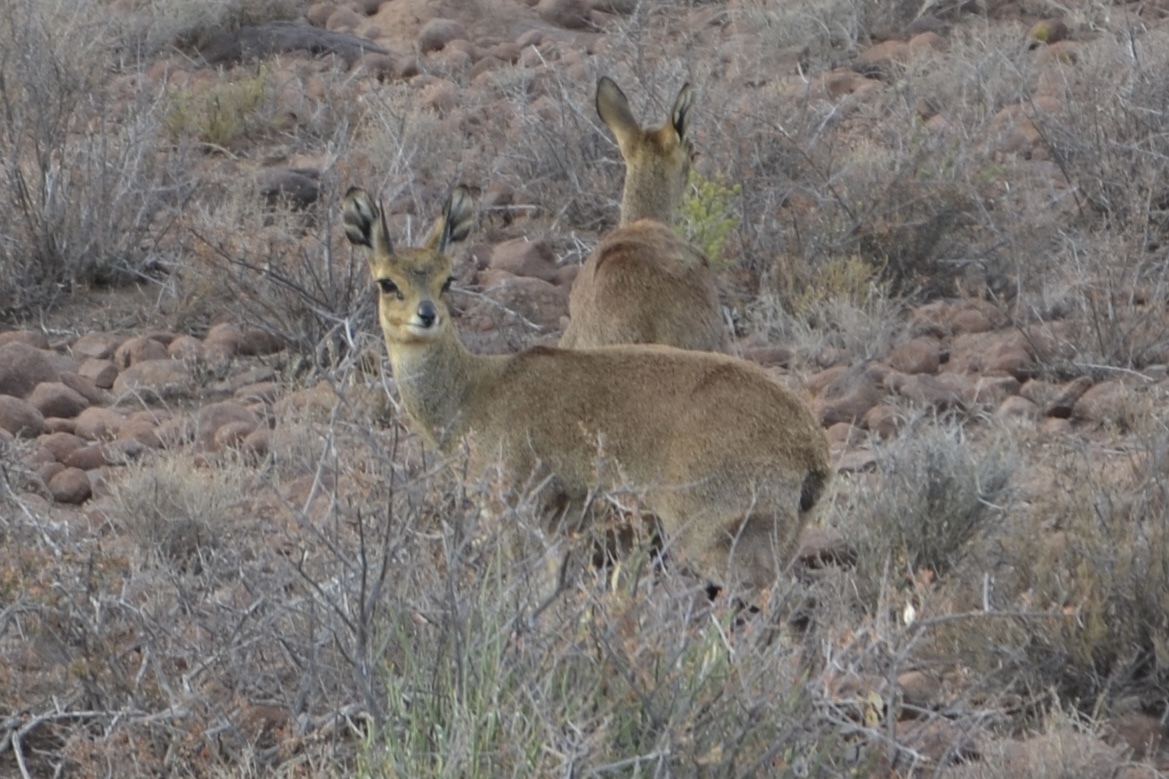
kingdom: Animalia
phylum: Chordata
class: Mammalia
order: Artiodactyla
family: Bovidae
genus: Oreotragus
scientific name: Oreotragus oreotragus
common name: Klipspringer
